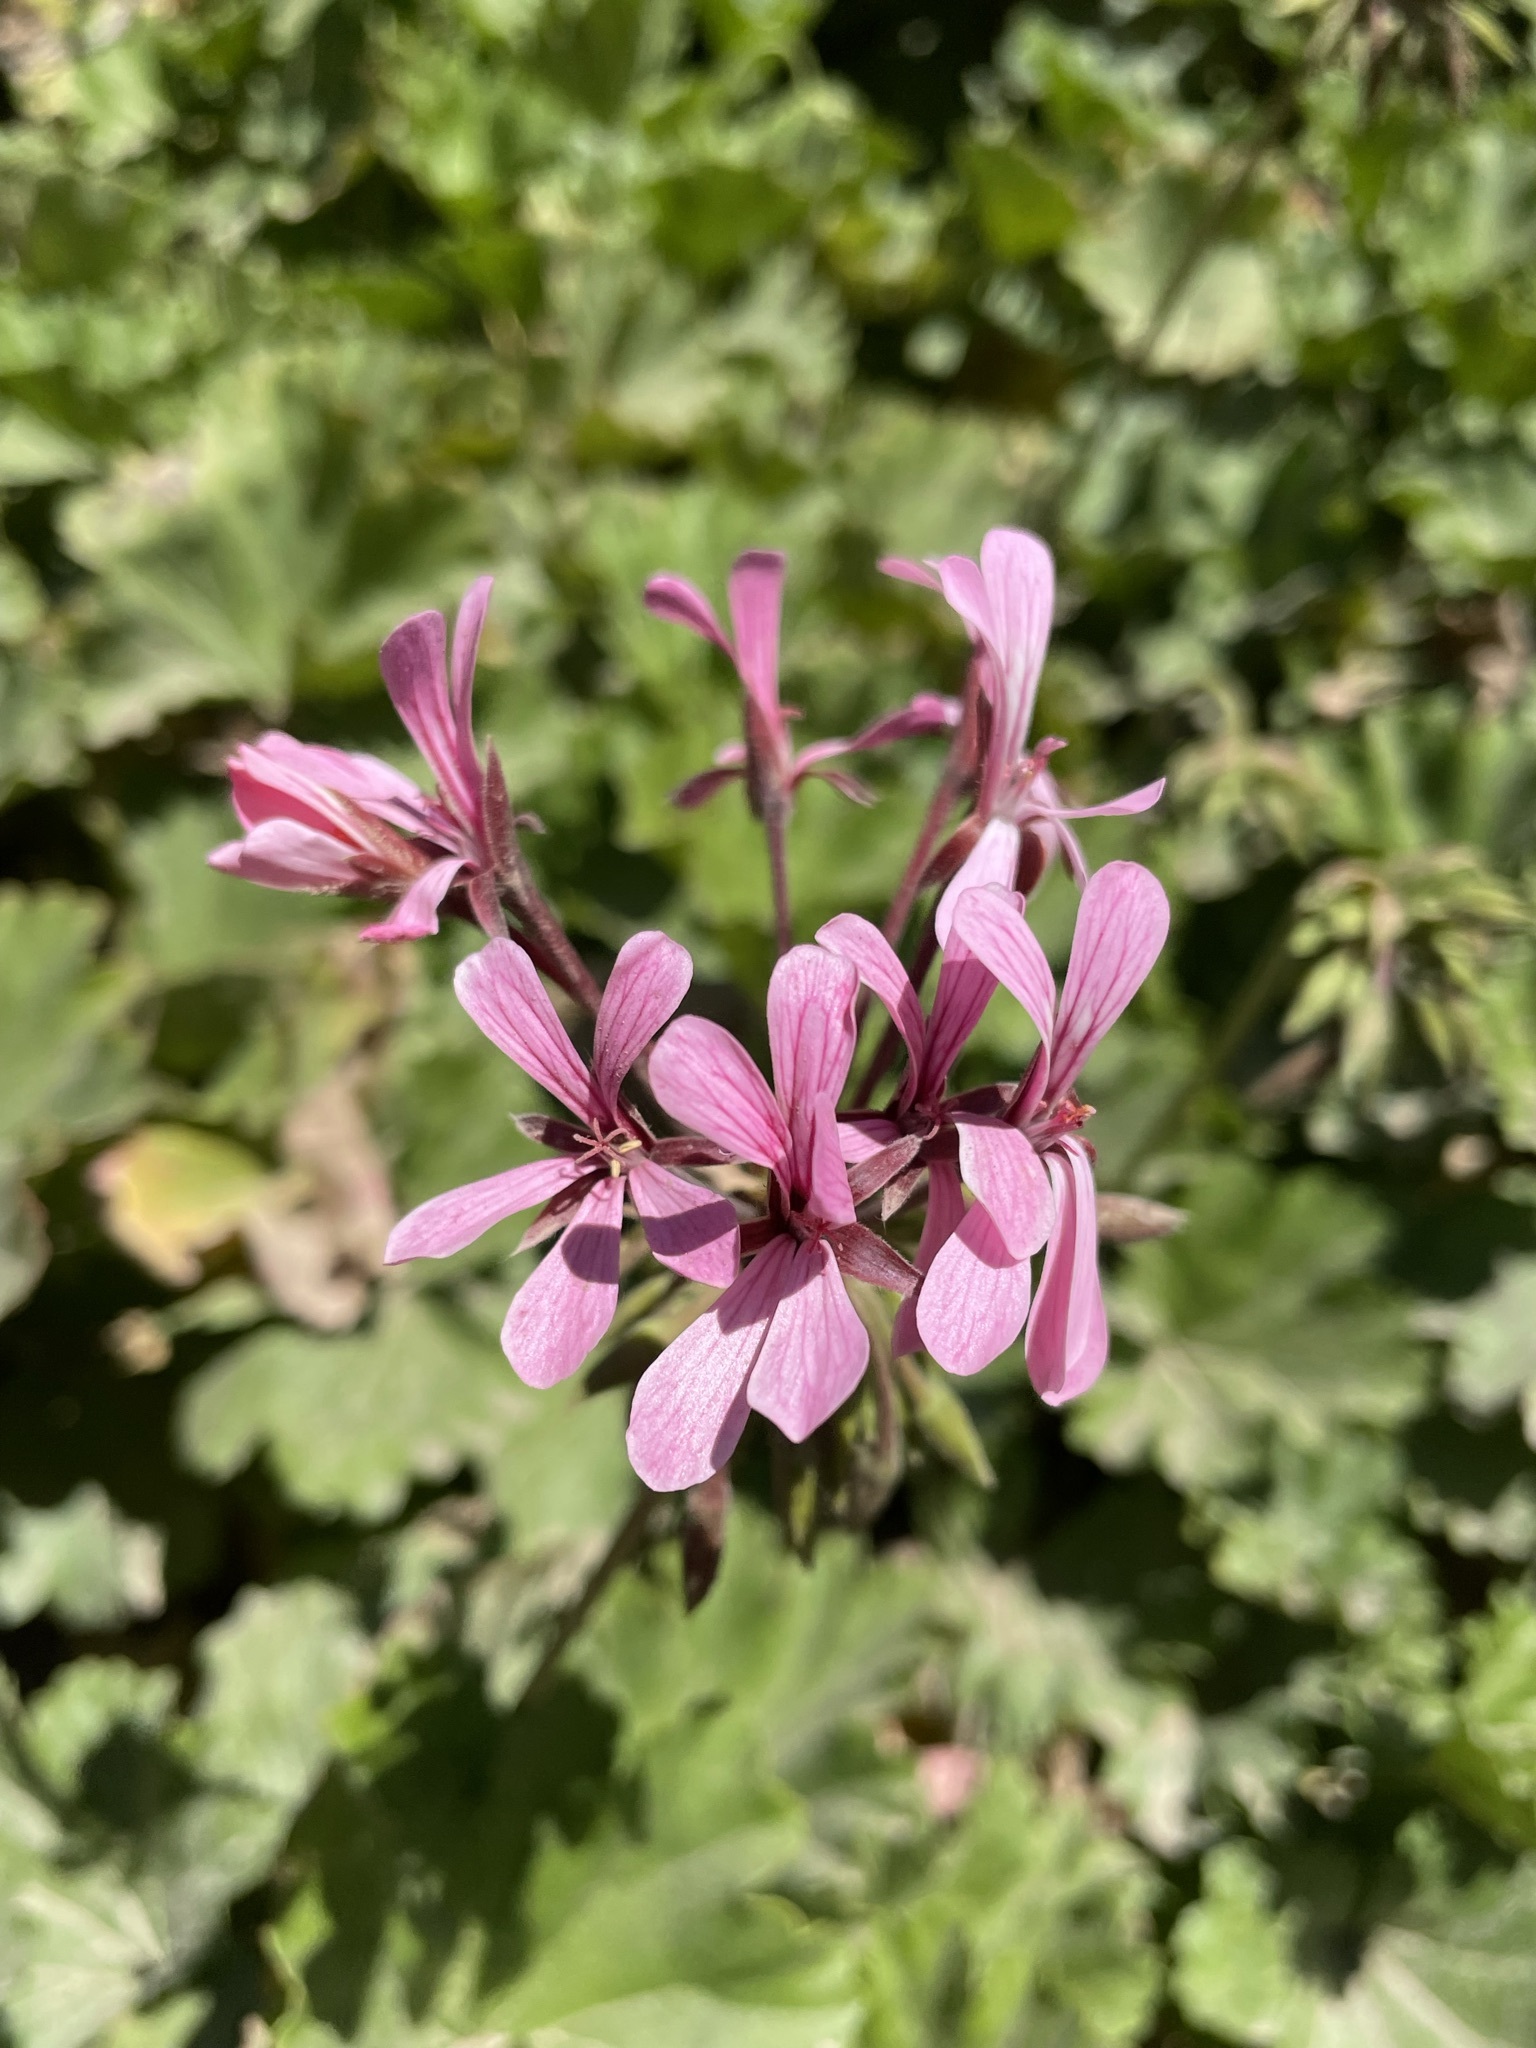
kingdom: Plantae
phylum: Tracheophyta
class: Magnoliopsida
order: Geraniales
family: Geraniaceae
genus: Pelargonium
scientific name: Pelargonium zonale
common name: Horseshoe geranium
